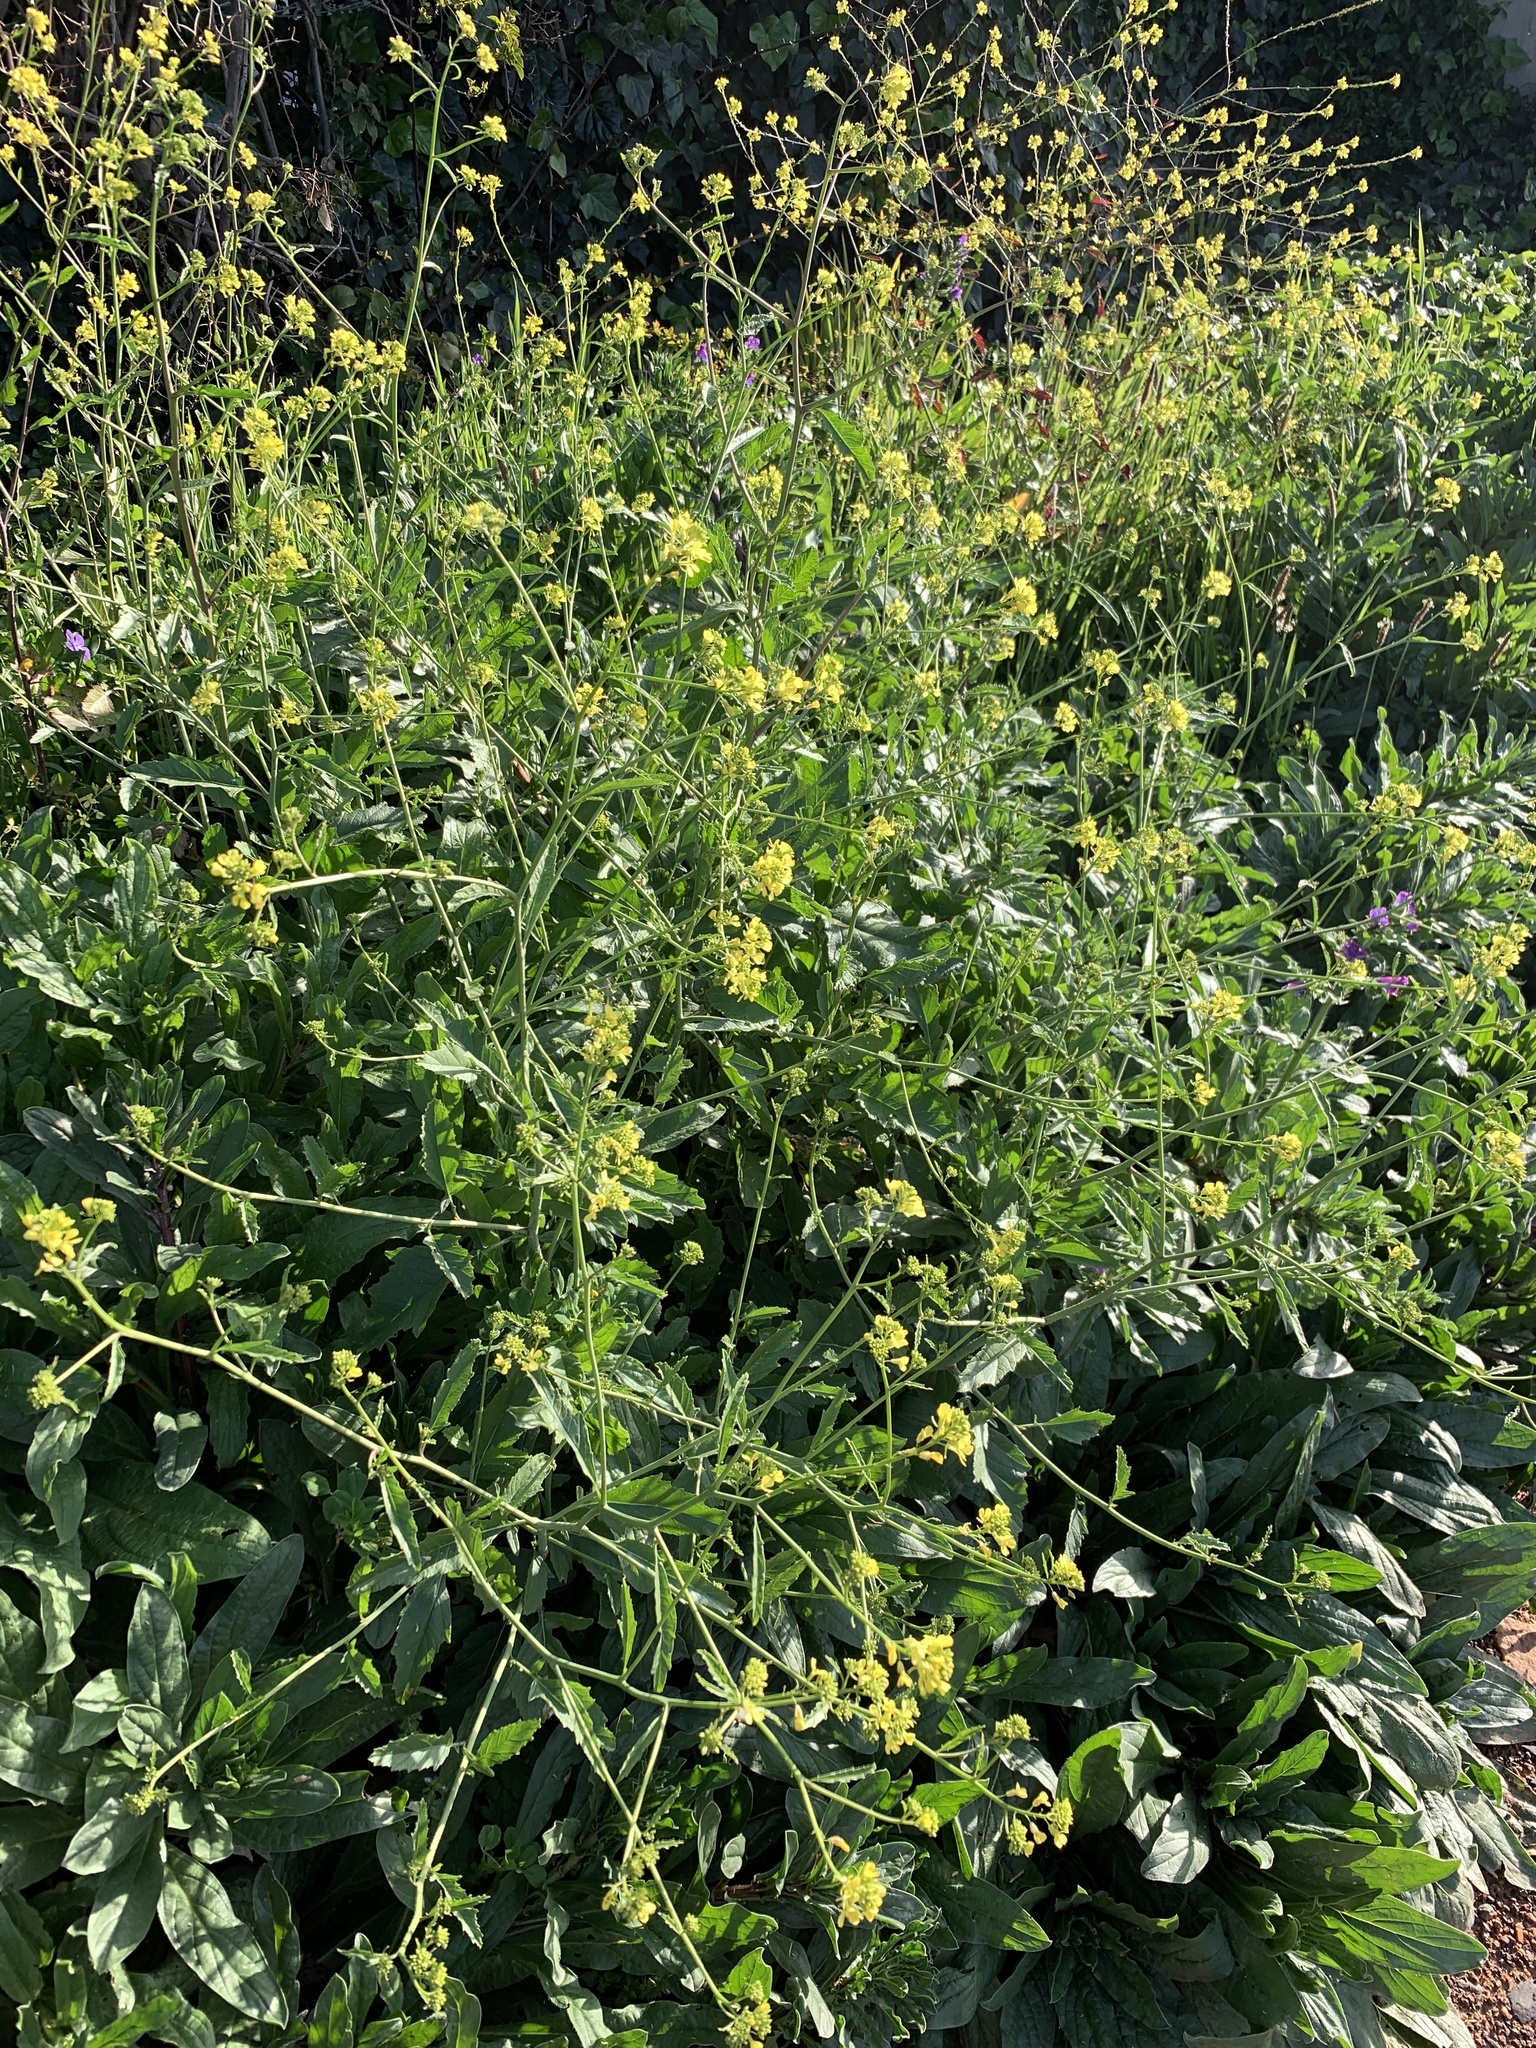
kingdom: Plantae
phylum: Tracheophyta
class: Magnoliopsida
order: Brassicales
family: Brassicaceae
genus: Rapistrum
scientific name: Rapistrum rugosum
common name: Annual bastardcabbage
